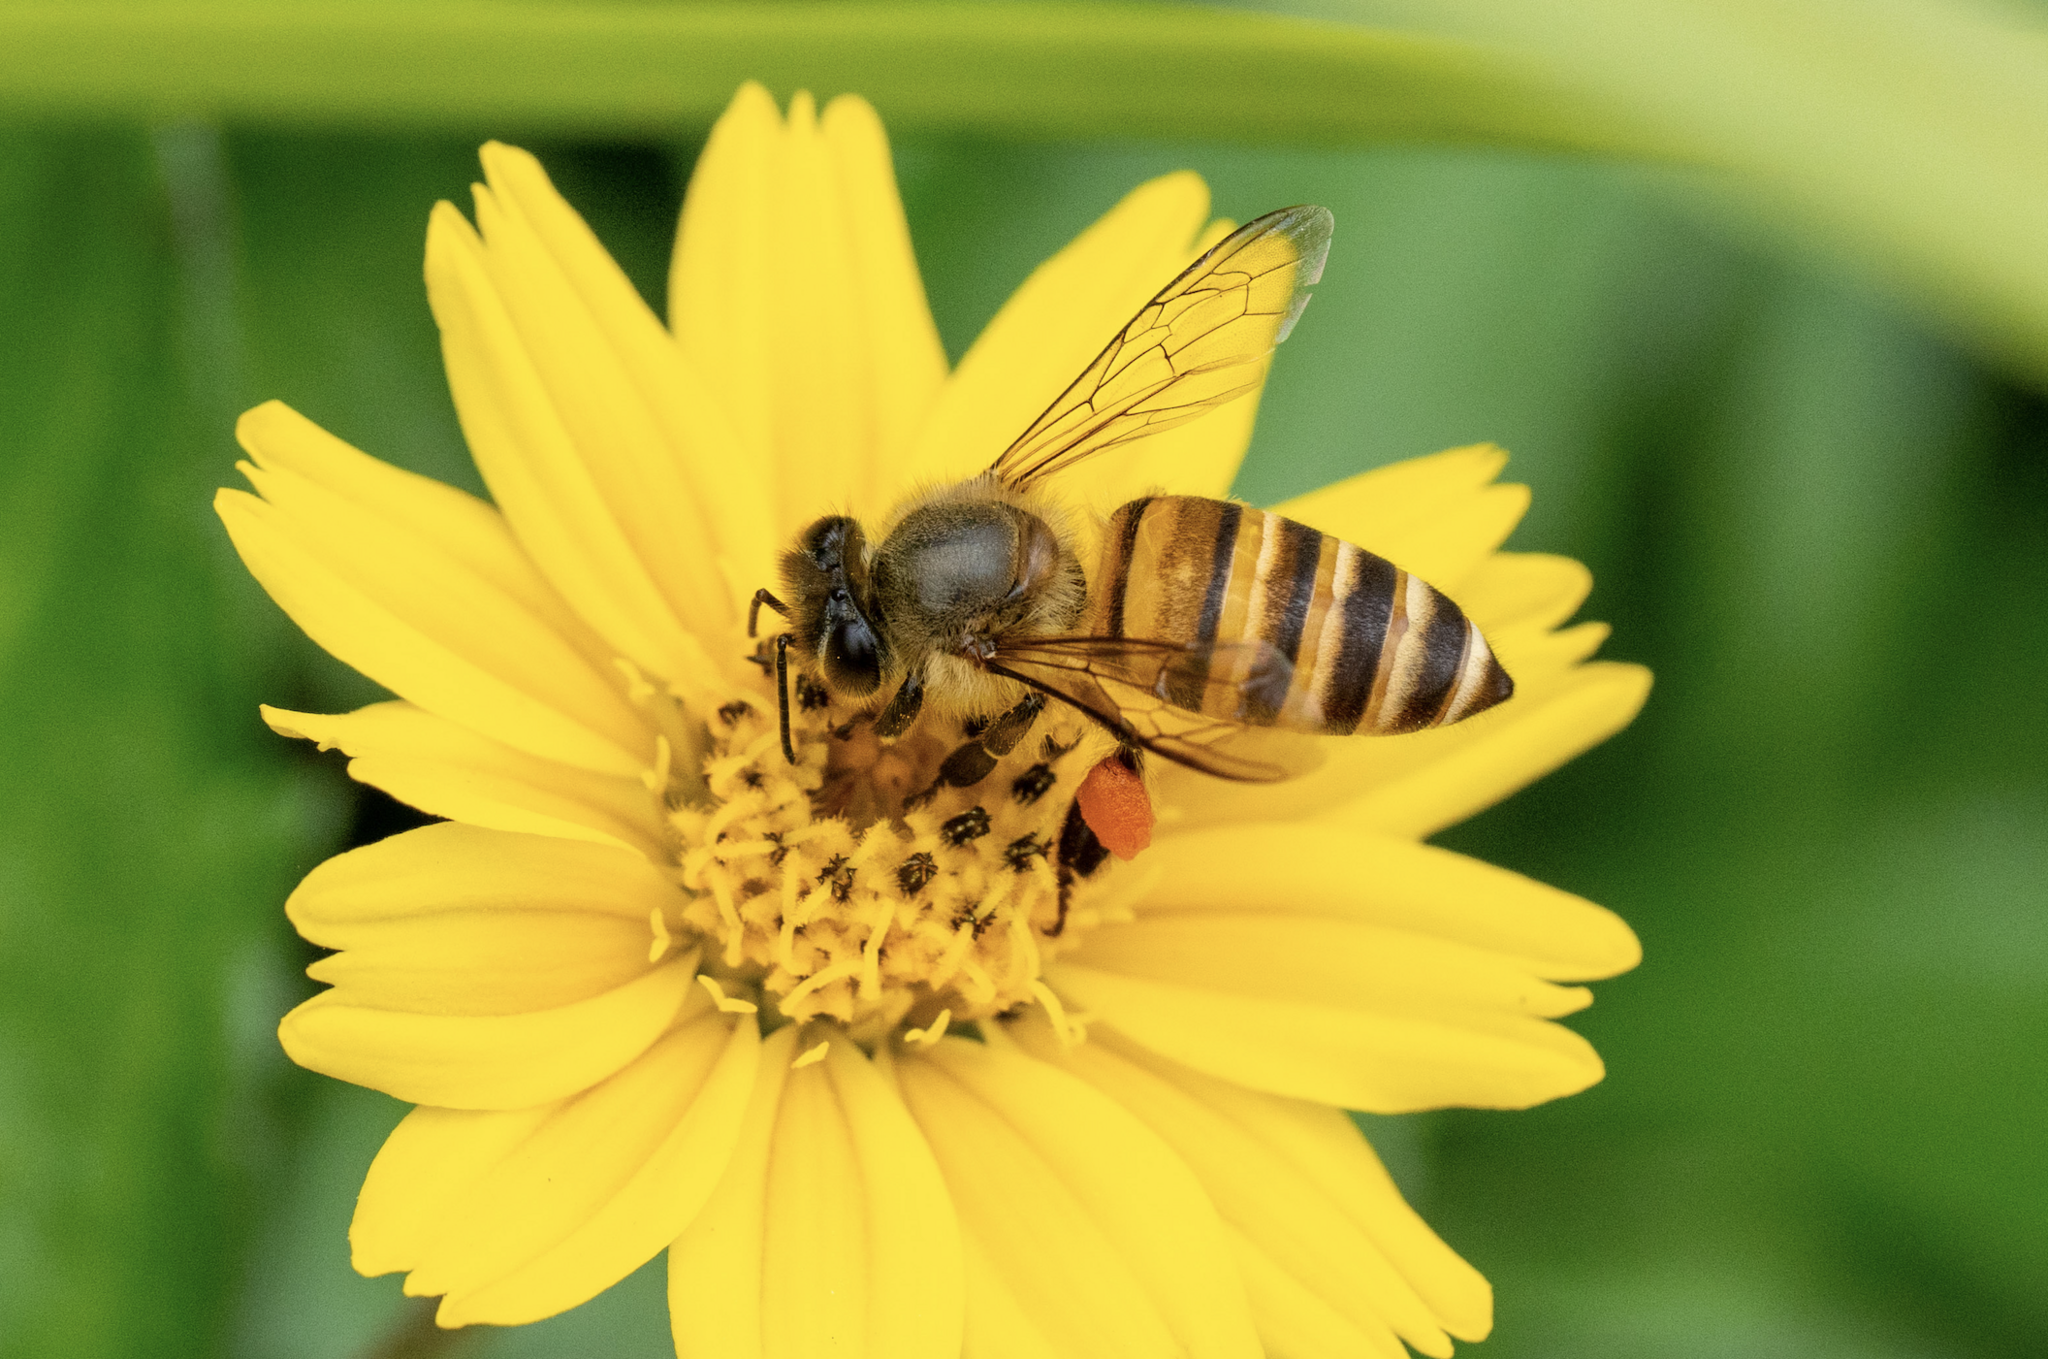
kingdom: Animalia
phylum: Arthropoda
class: Insecta
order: Hymenoptera
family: Apidae
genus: Apis
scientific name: Apis cerana
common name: Honey bee
